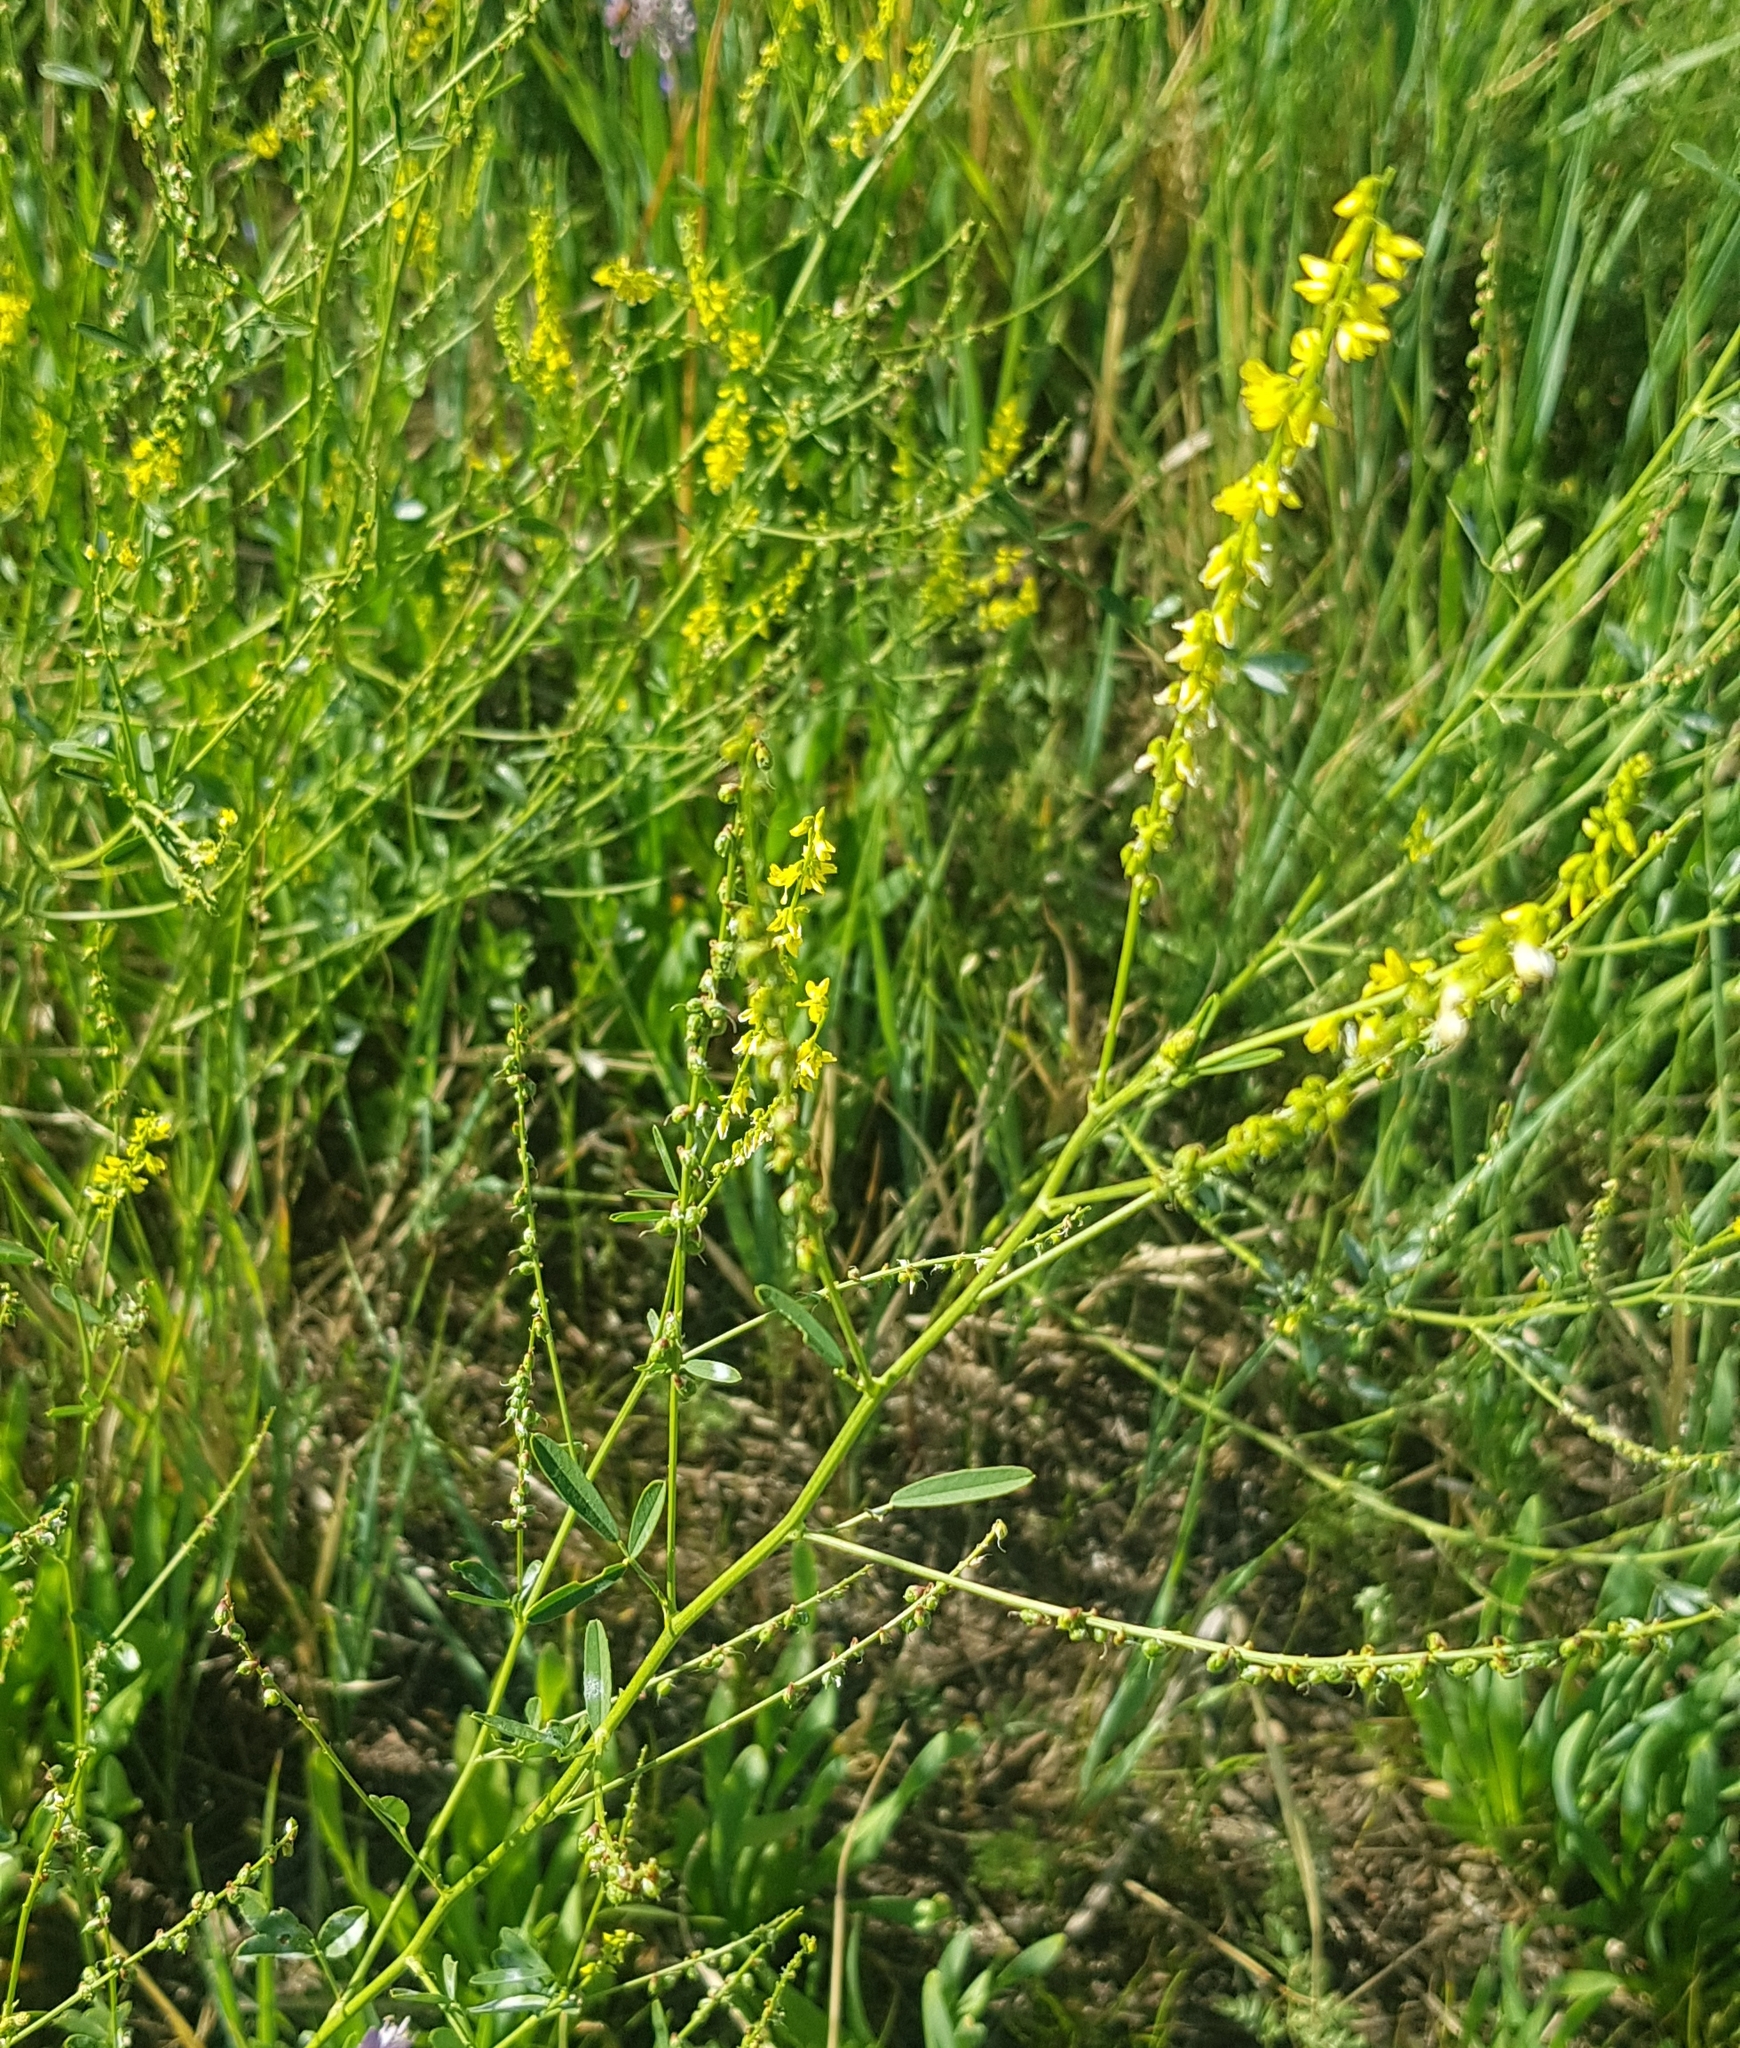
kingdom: Plantae
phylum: Tracheophyta
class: Magnoliopsida
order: Fabales
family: Fabaceae
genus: Melilotus
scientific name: Melilotus officinalis
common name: Sweetclover
